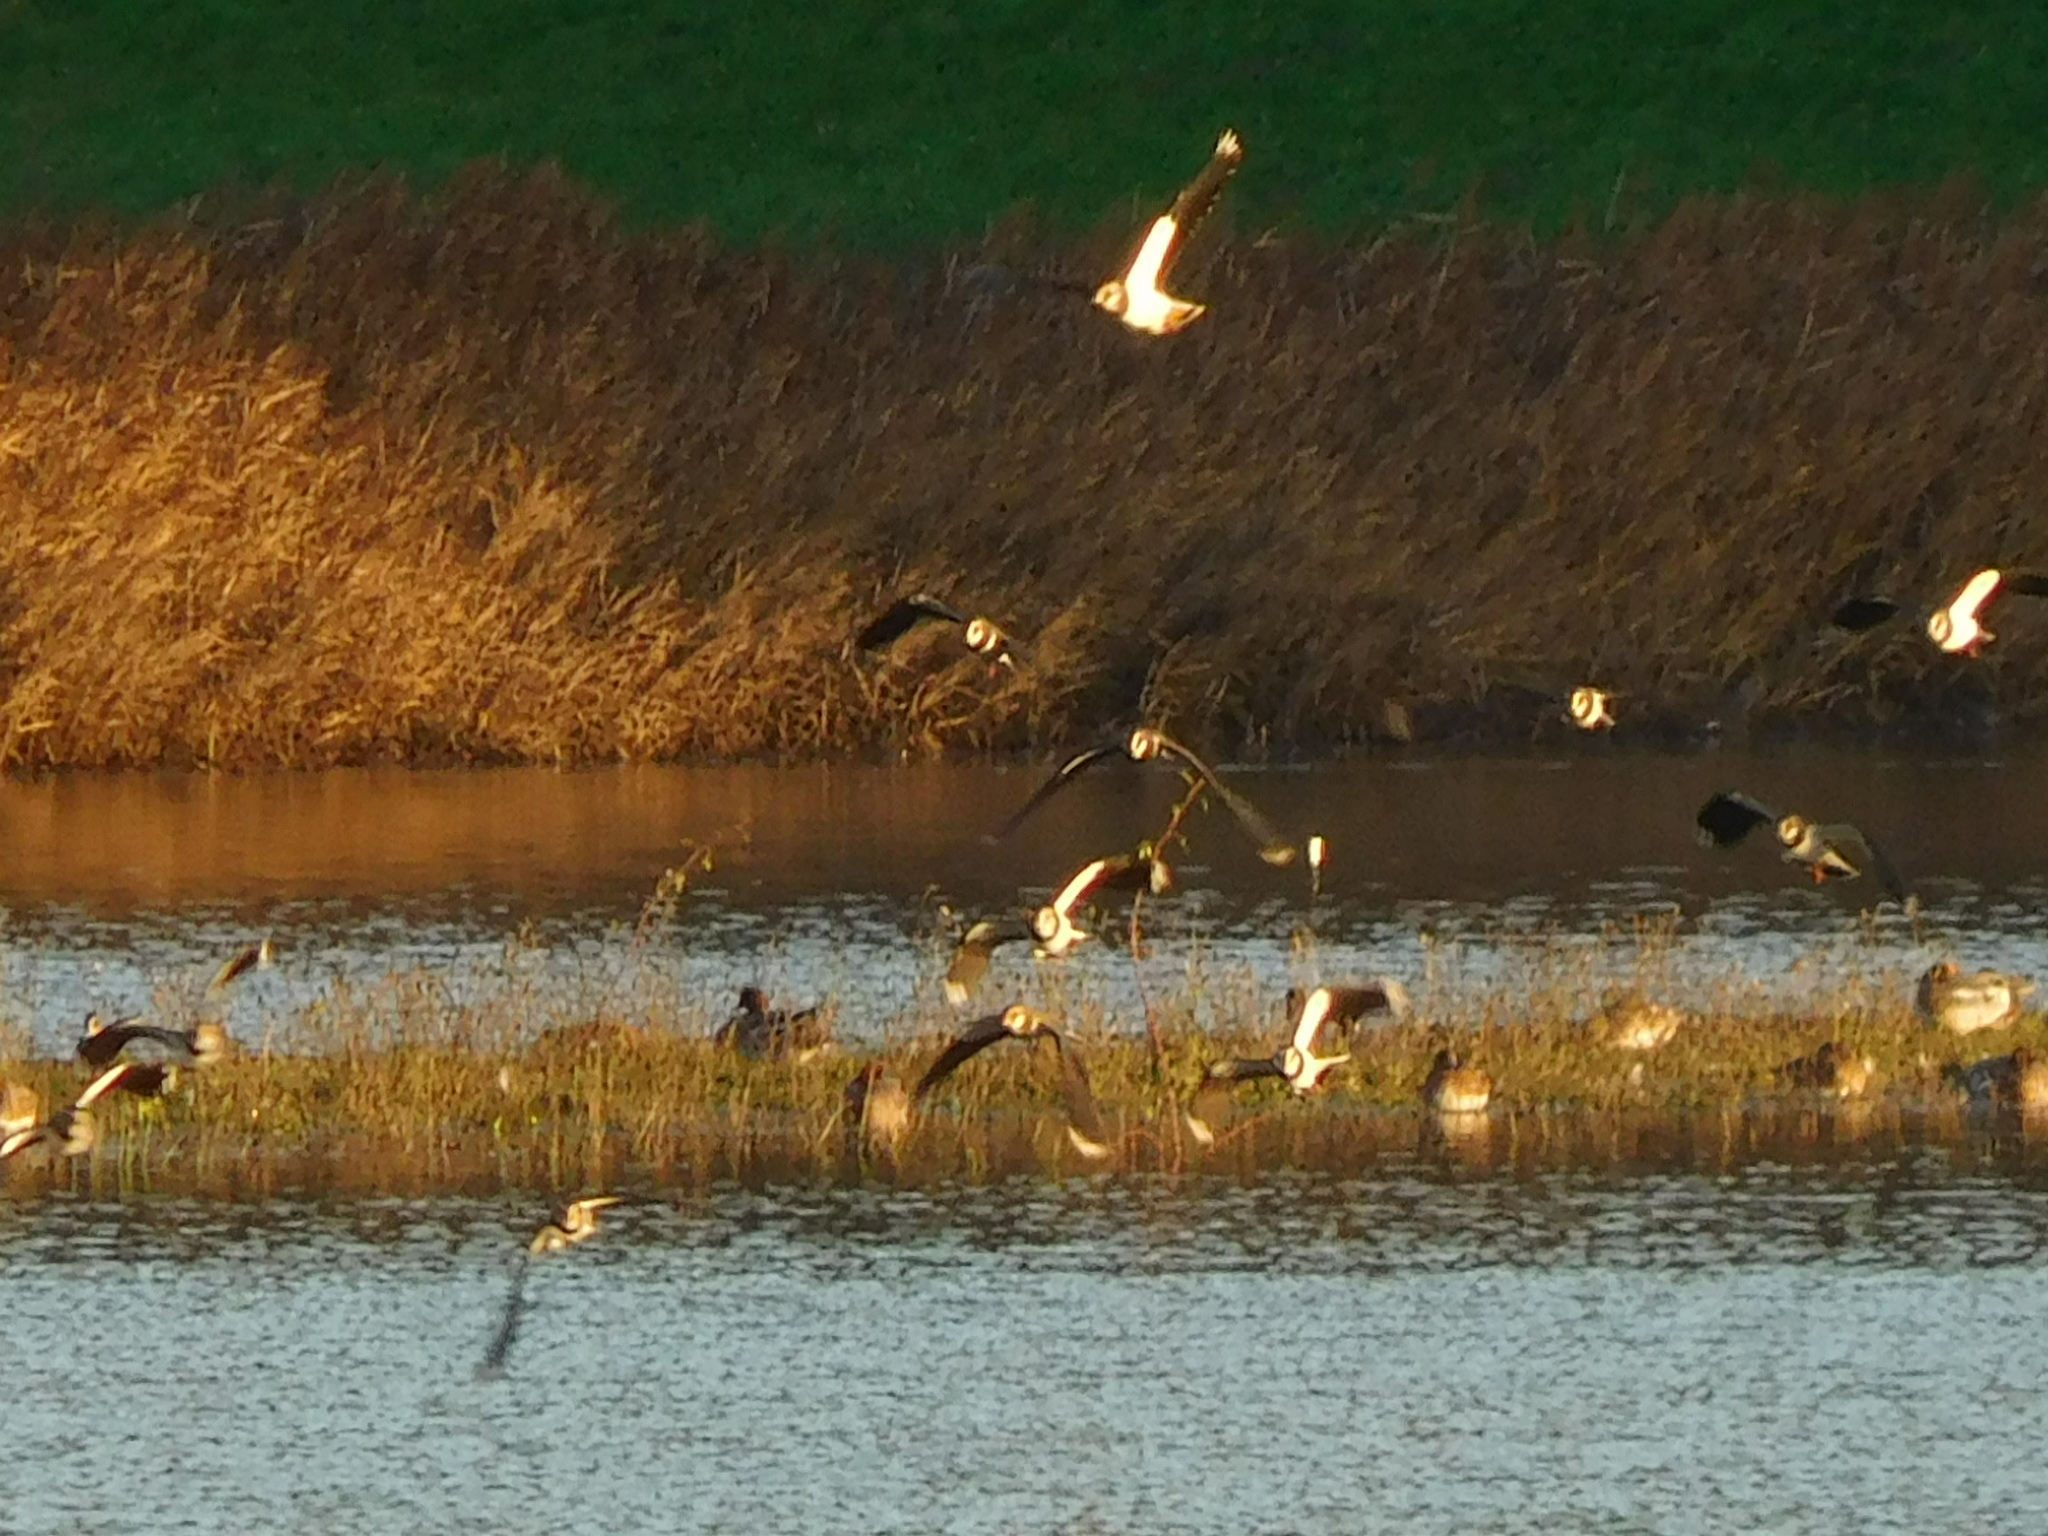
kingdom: Animalia
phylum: Chordata
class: Aves
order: Charadriiformes
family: Charadriidae
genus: Vanellus
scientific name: Vanellus vanellus
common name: Northern lapwing
